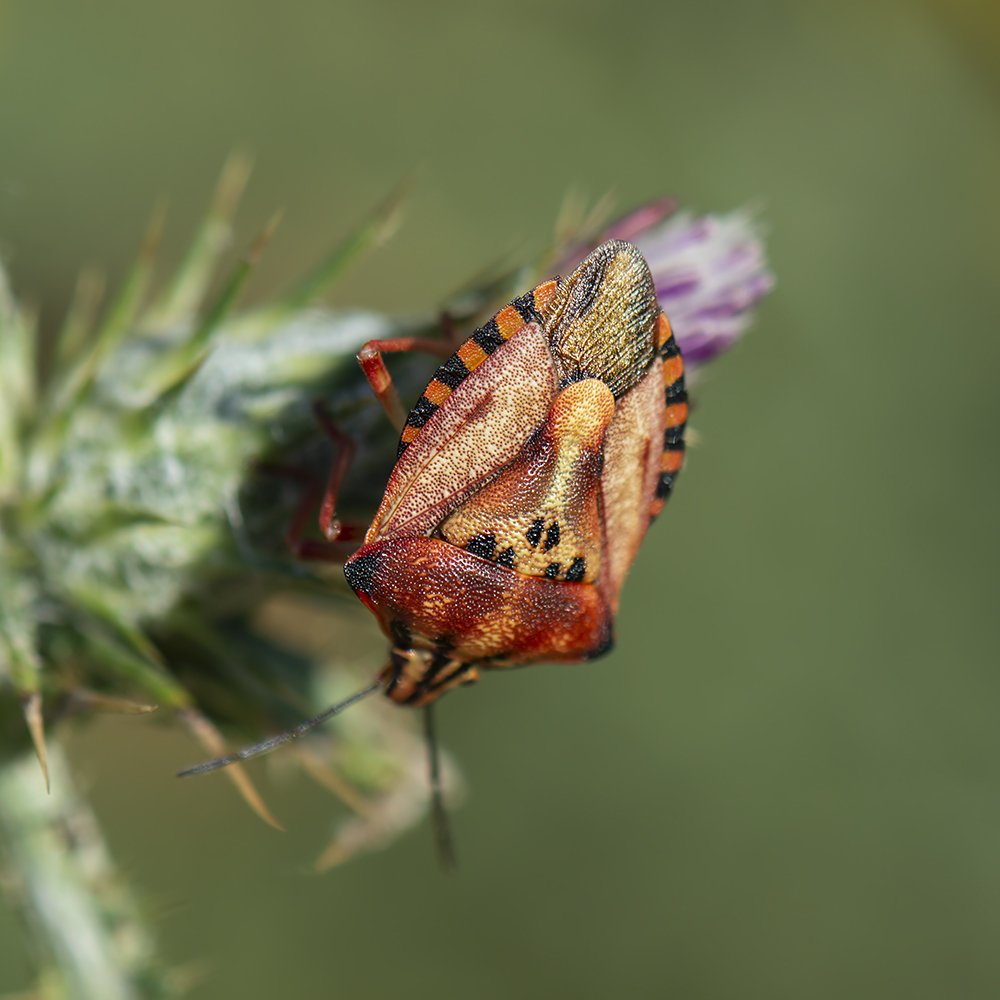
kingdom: Animalia
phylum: Arthropoda
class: Insecta
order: Hemiptera
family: Pentatomidae
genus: Carpocoris
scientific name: Carpocoris mediterraneus
